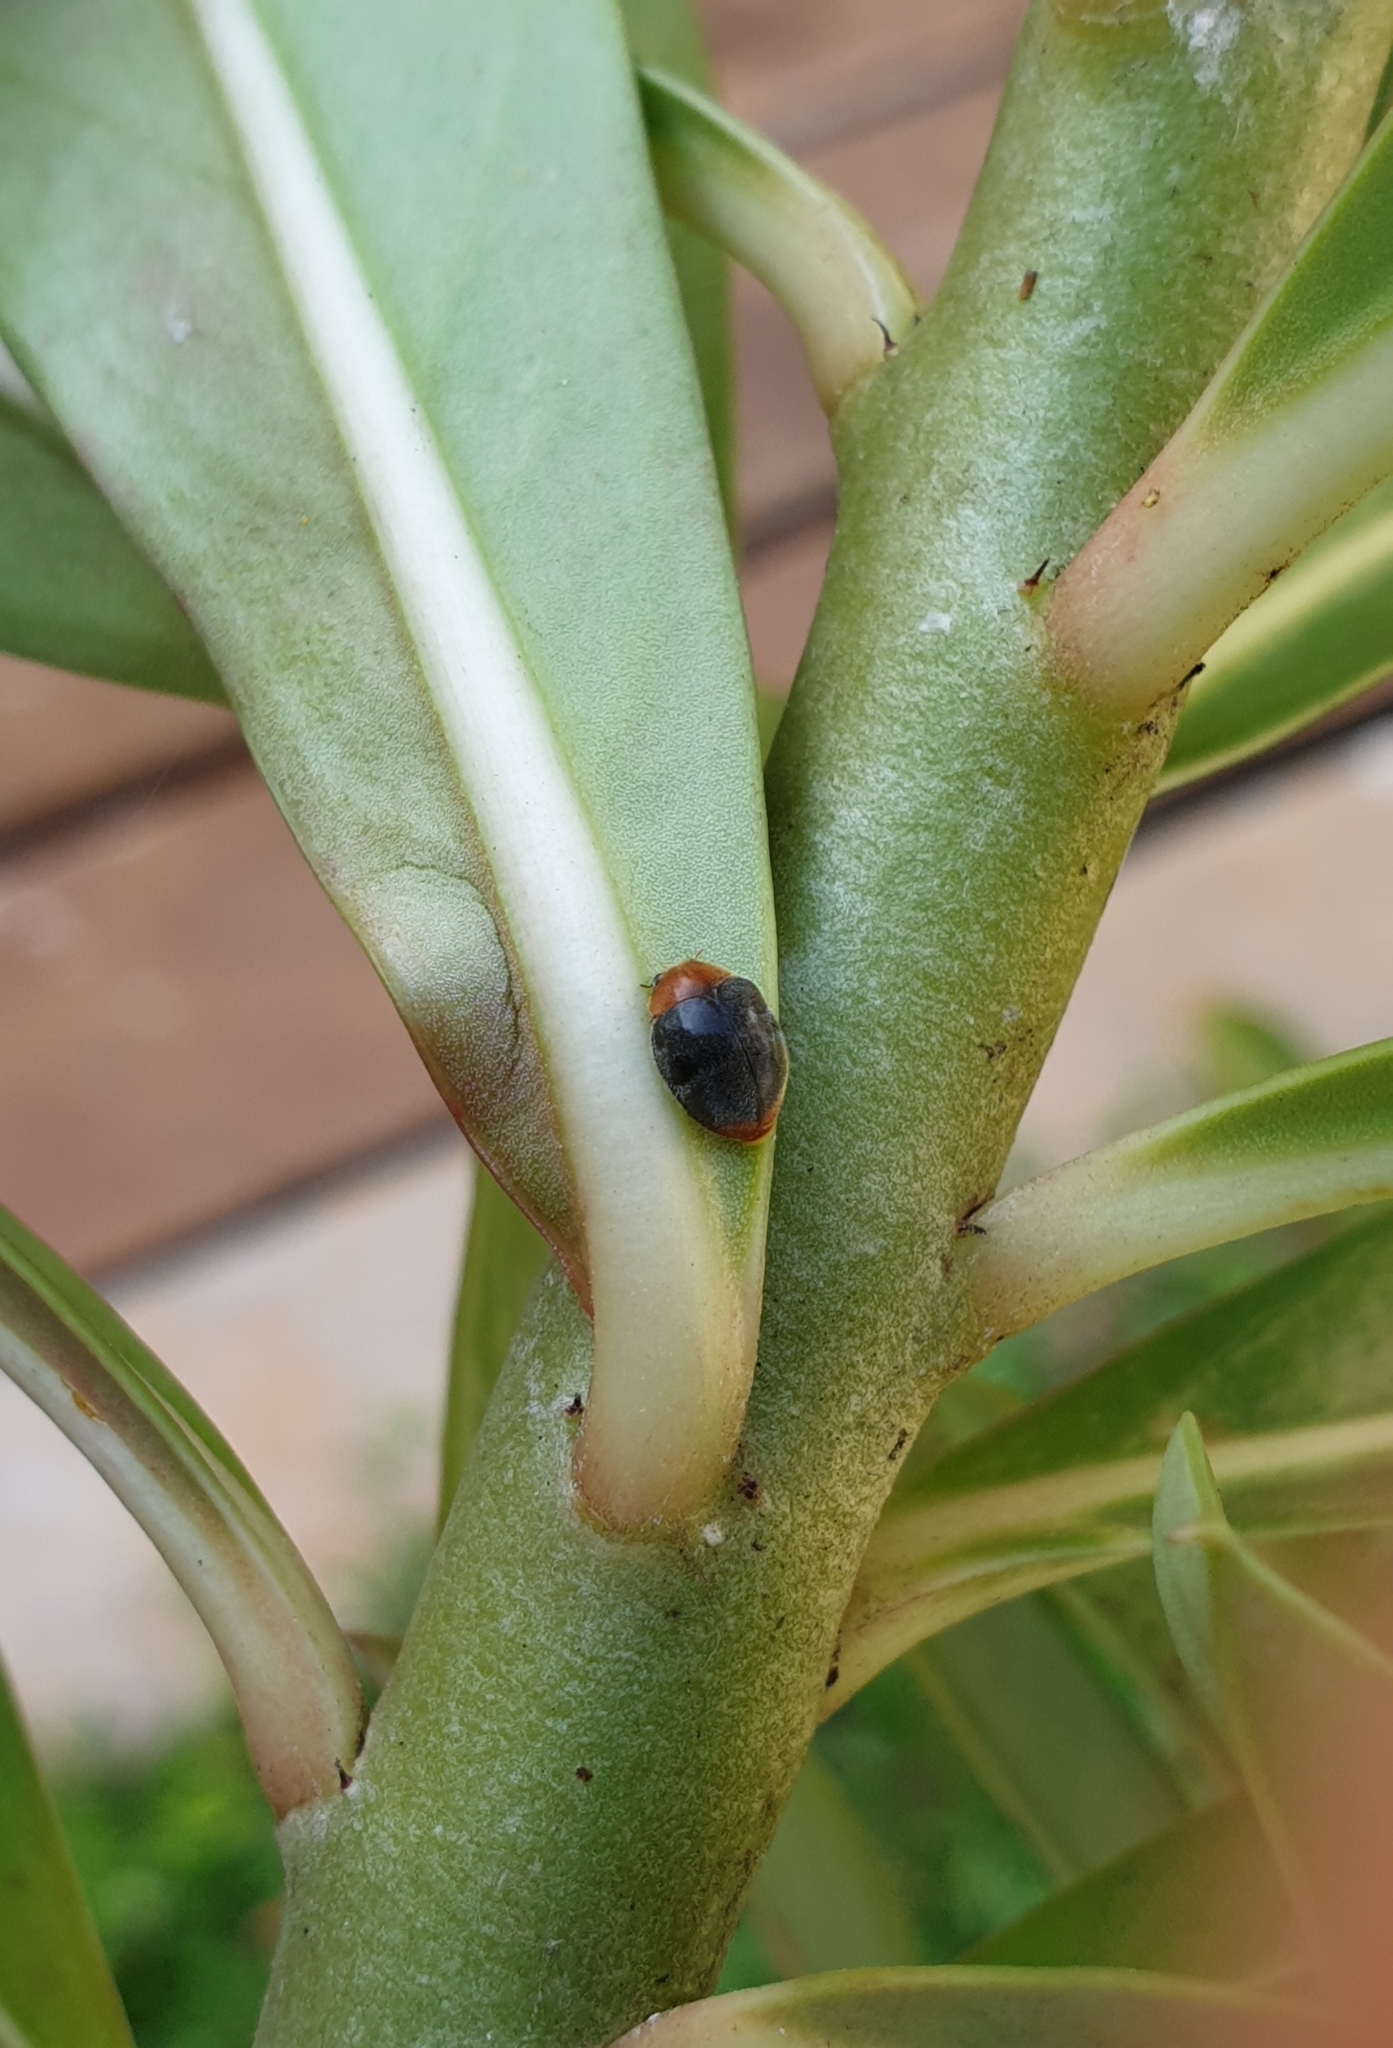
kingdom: Animalia
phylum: Arthropoda
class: Insecta
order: Coleoptera
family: Coccinellidae
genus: Cryptolaemus
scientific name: Cryptolaemus montrouzieri
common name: Mealybug destroyer
